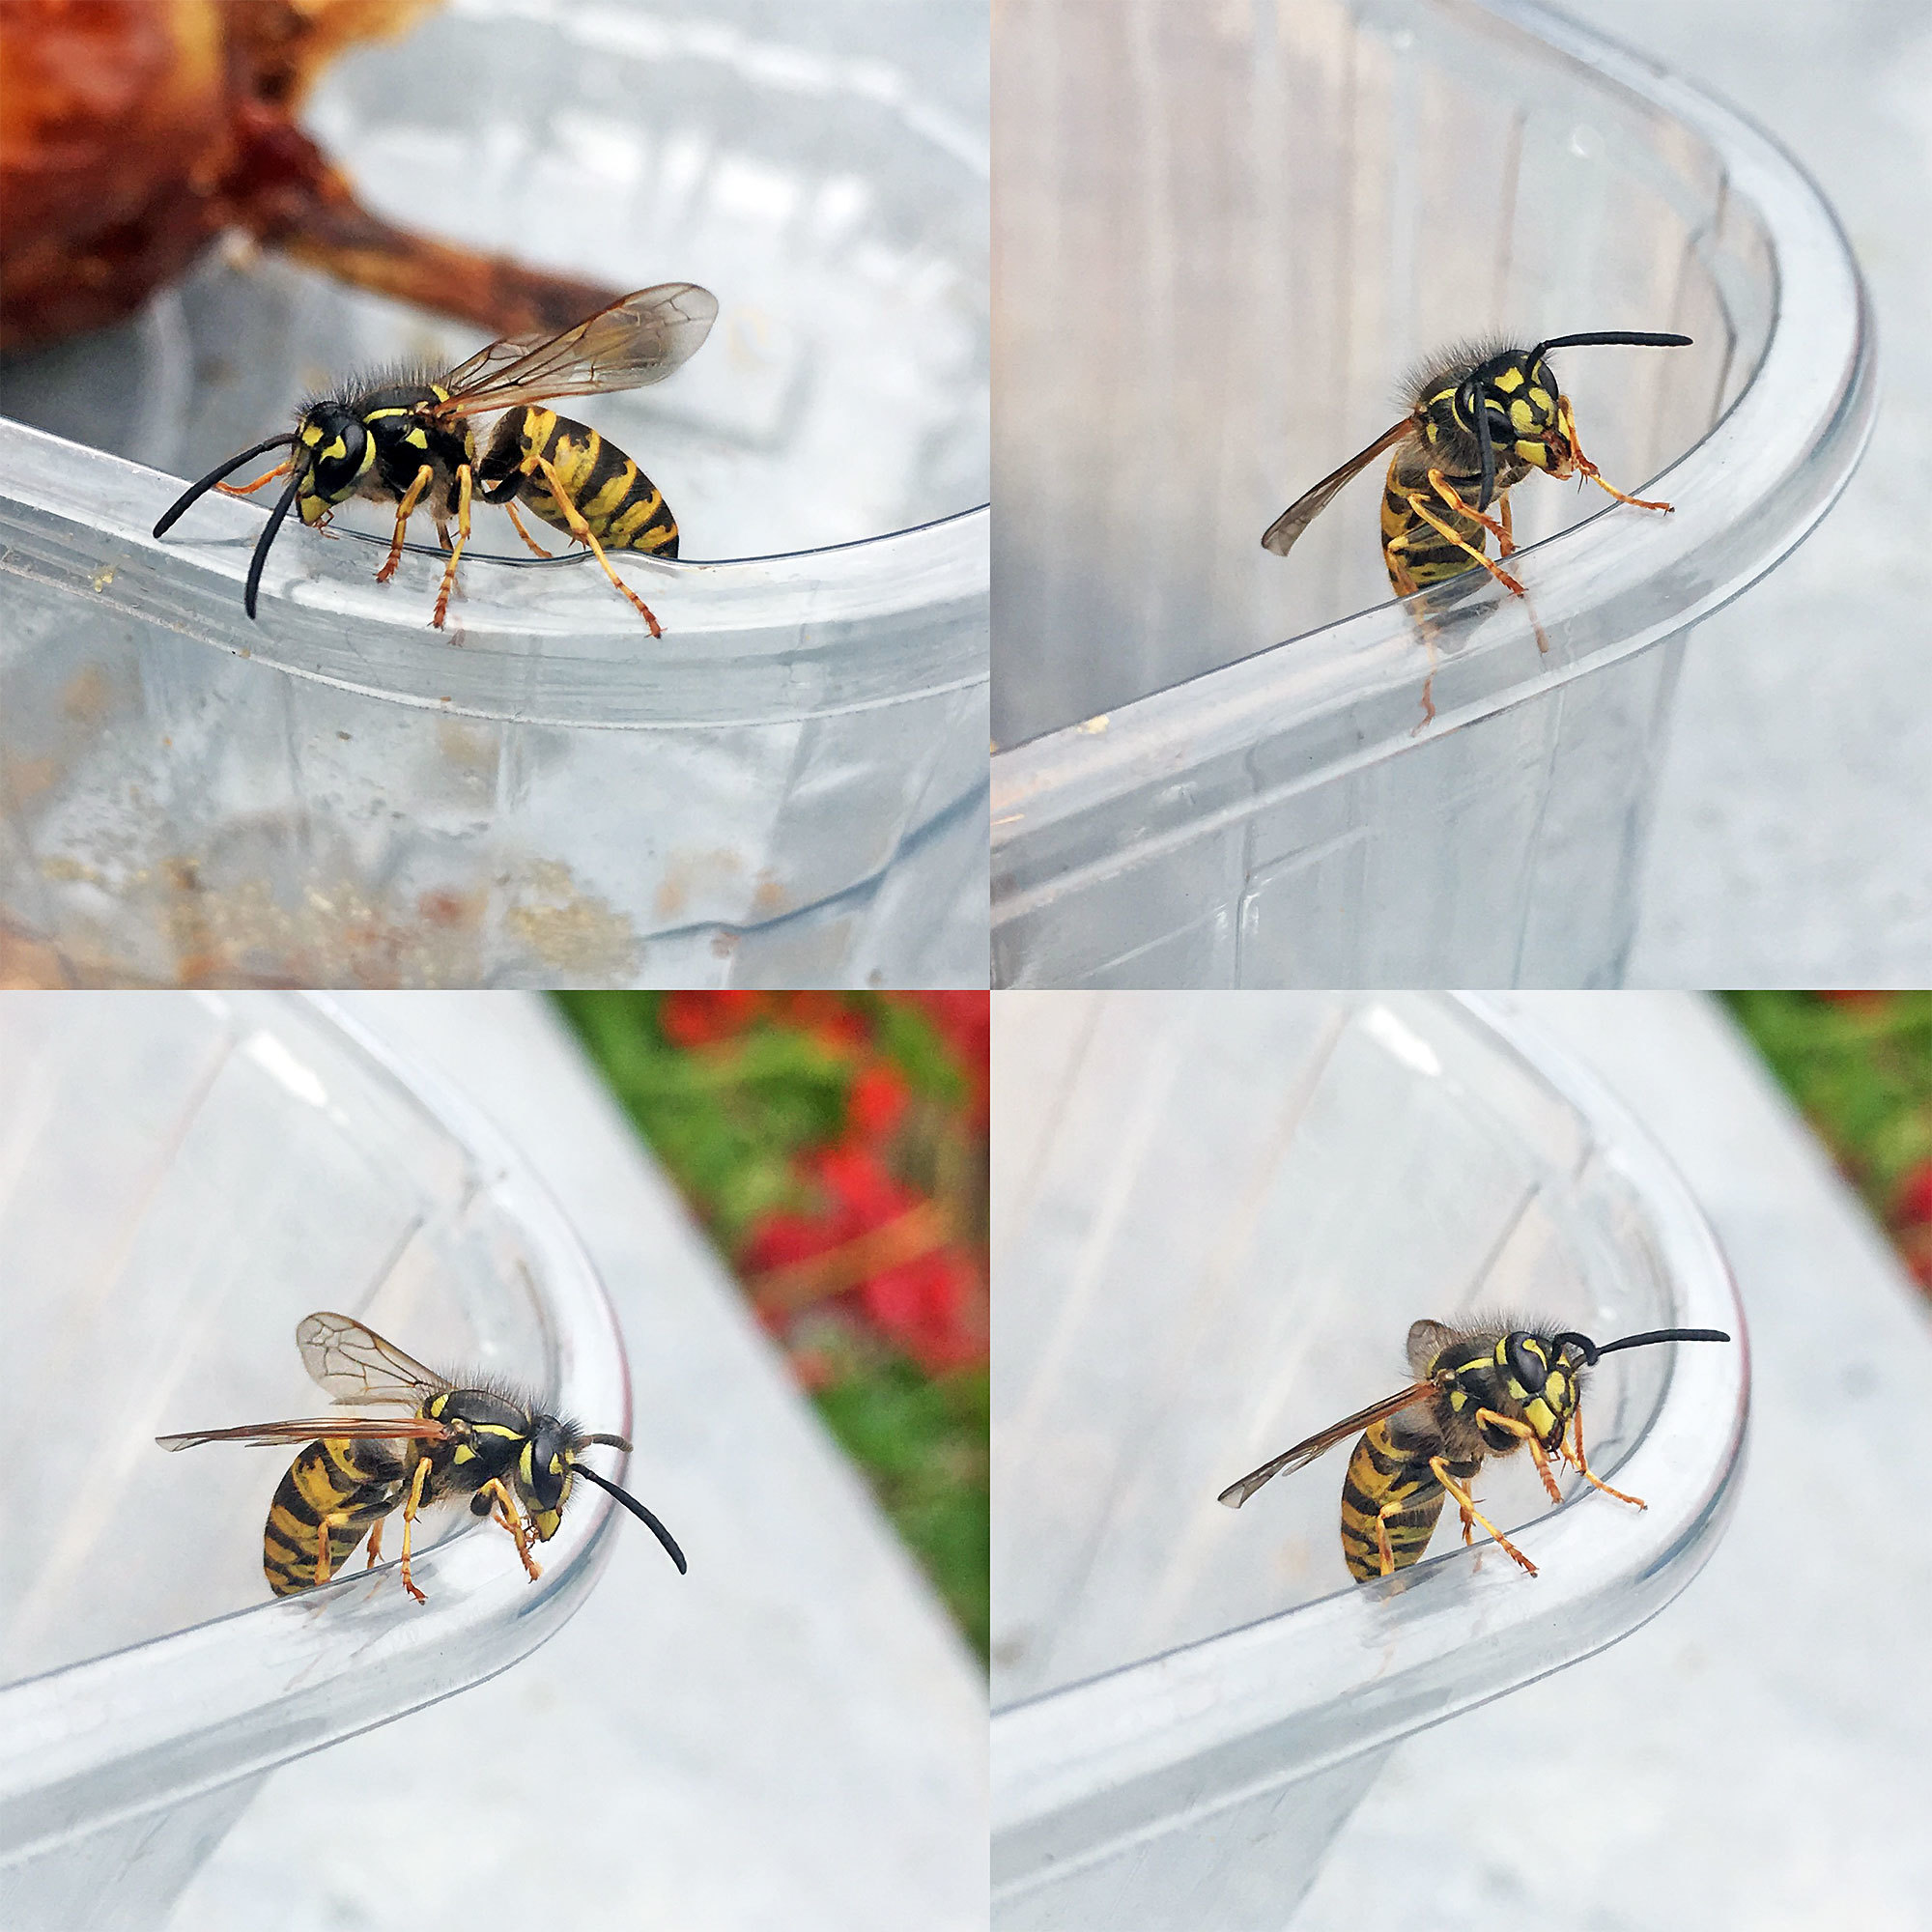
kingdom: Animalia
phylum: Arthropoda
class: Insecta
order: Hymenoptera
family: Vespidae
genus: Vespula
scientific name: Vespula vulgaris
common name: Common wasp
